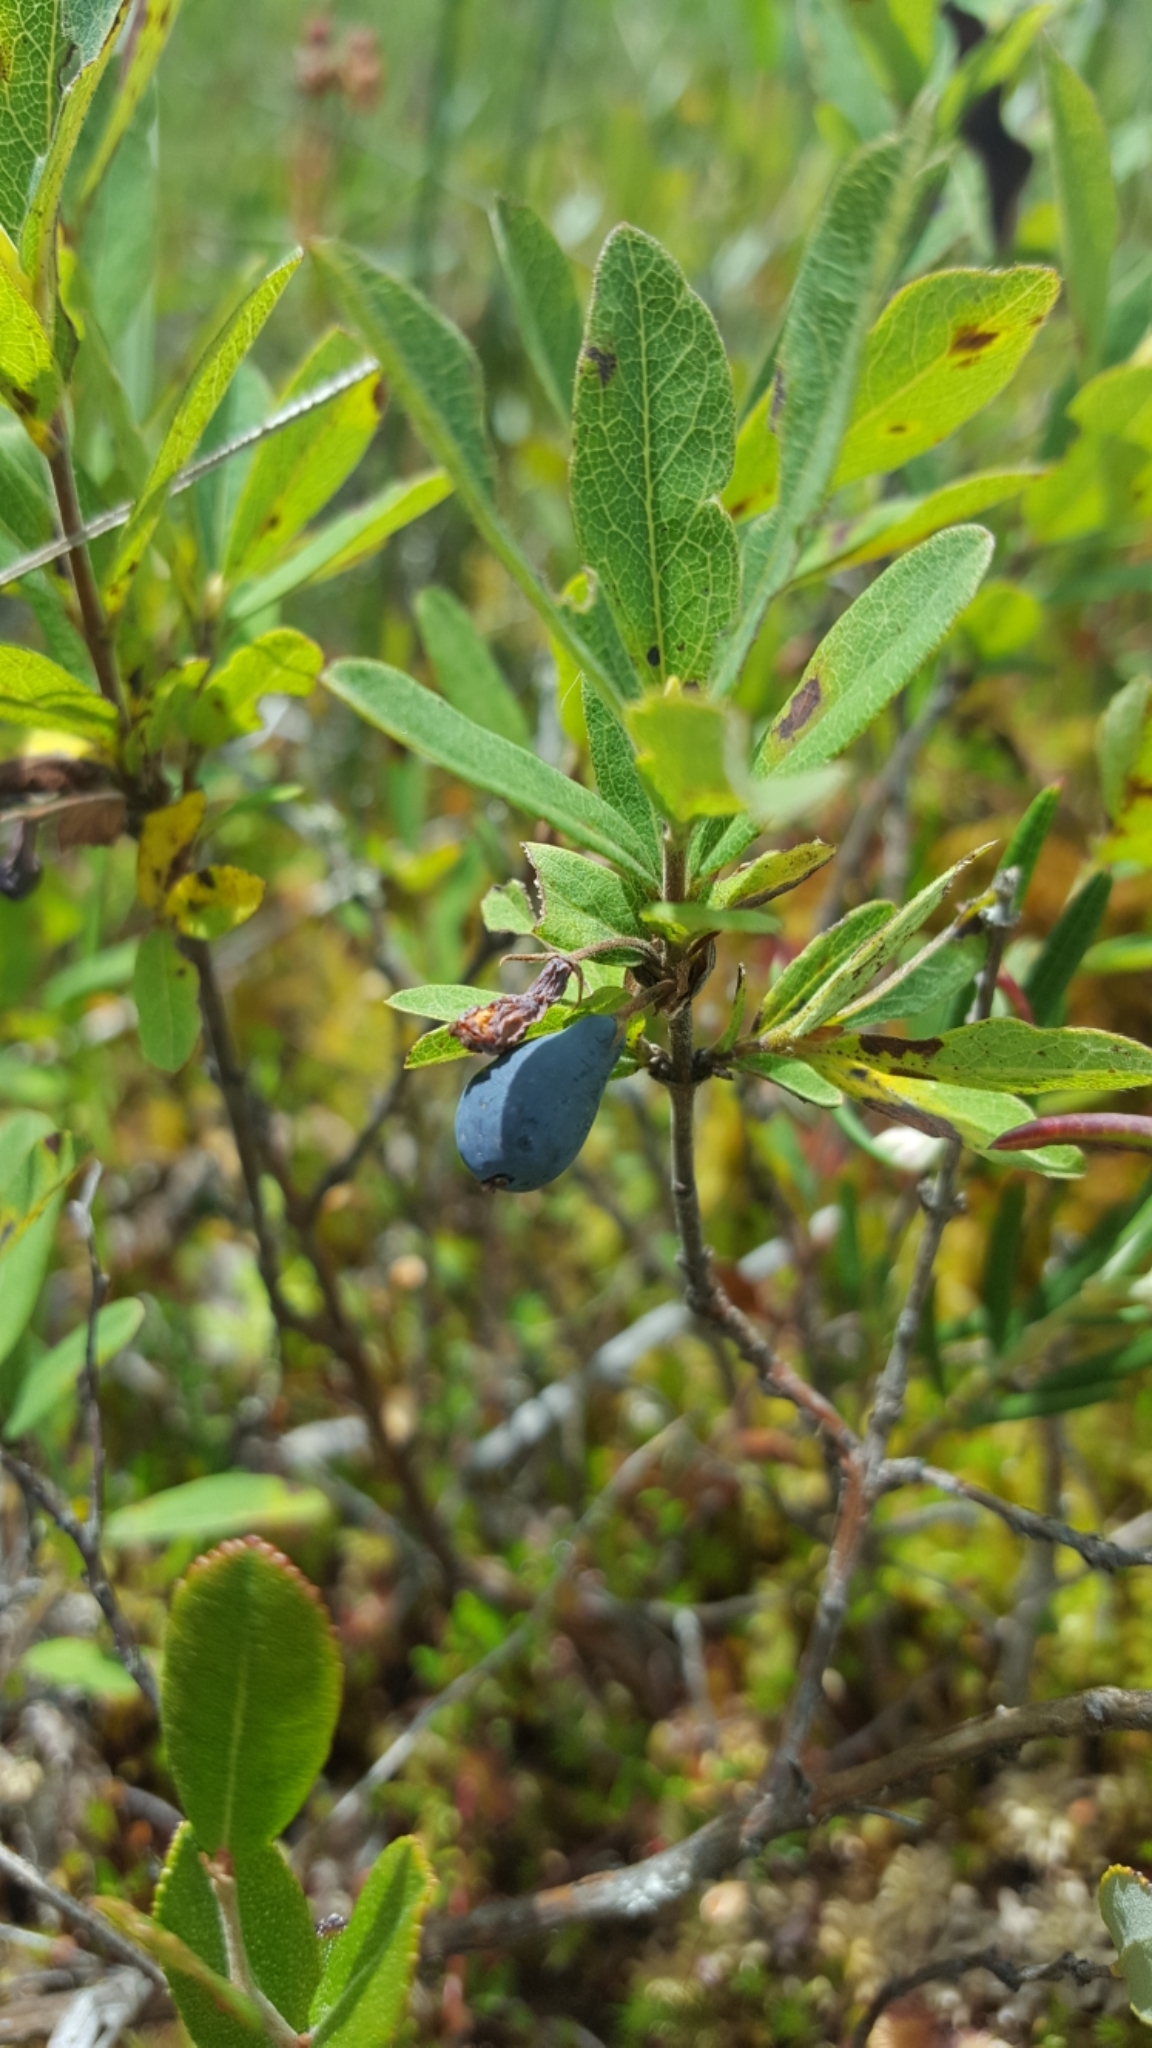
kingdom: Plantae
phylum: Tracheophyta
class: Magnoliopsida
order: Dipsacales
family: Caprifoliaceae
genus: Lonicera
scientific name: Lonicera villosa
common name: Mountain fly-honeysuckle
